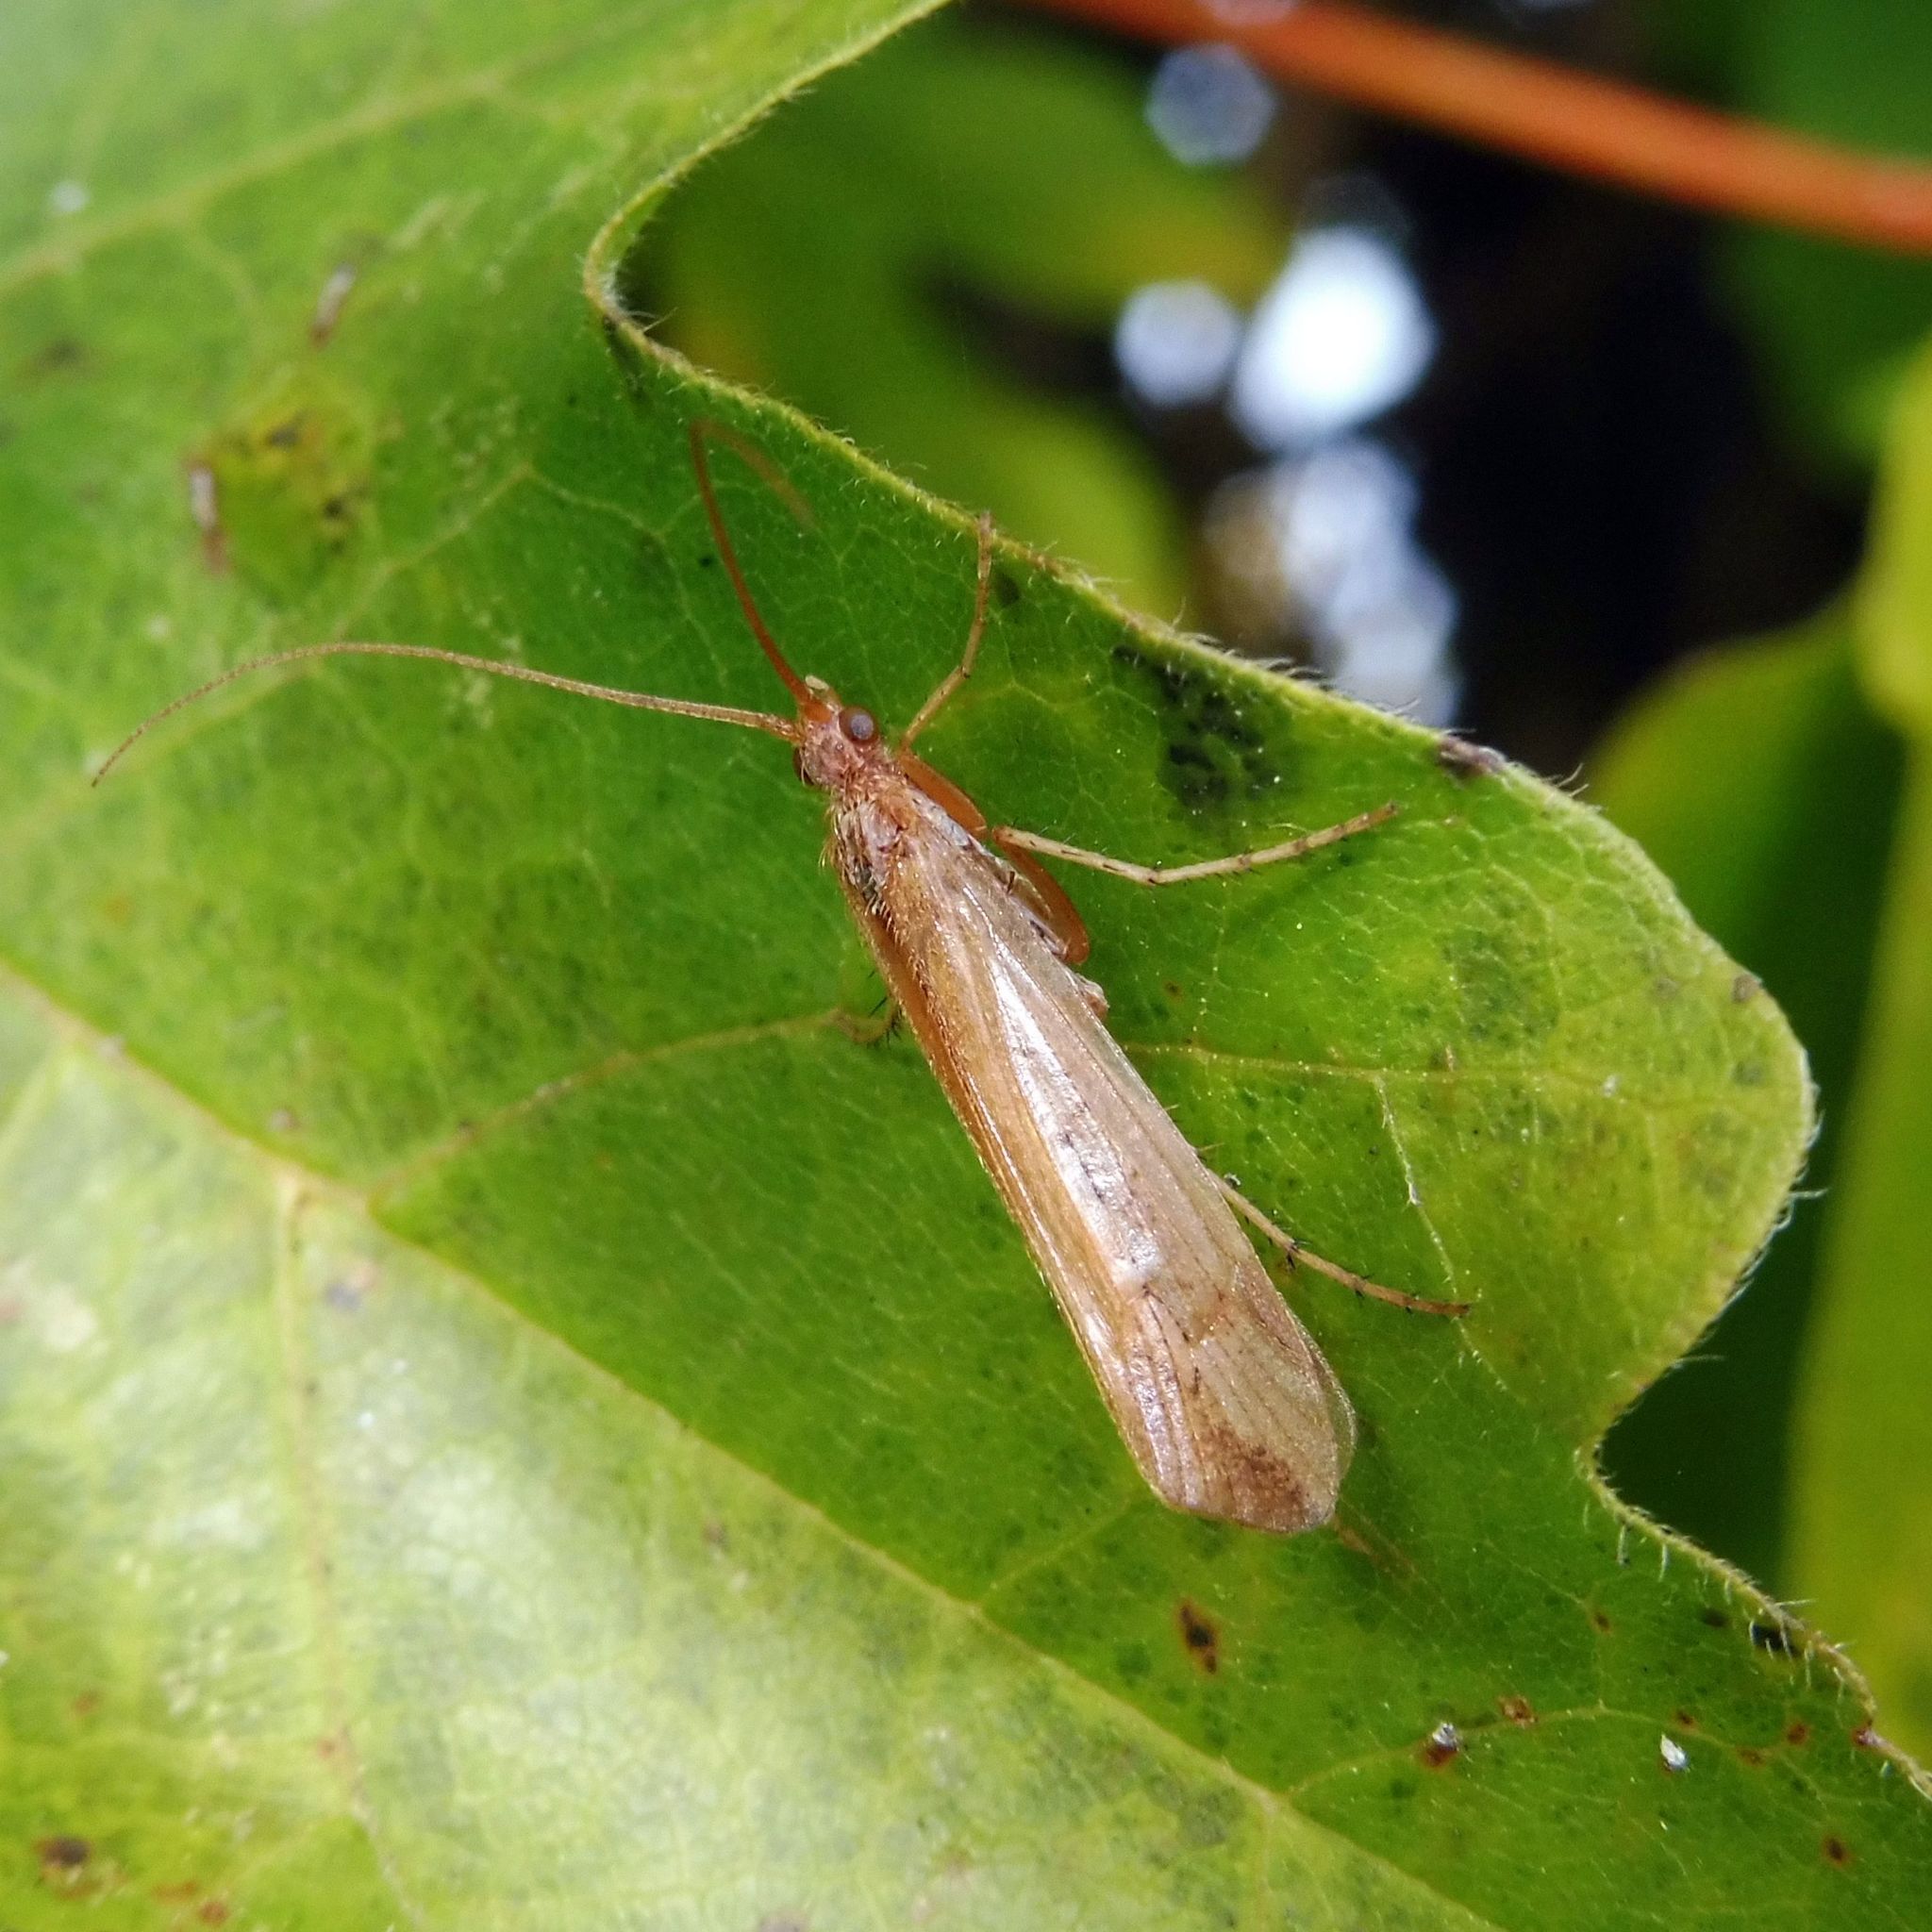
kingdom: Animalia
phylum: Arthropoda
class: Insecta
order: Trichoptera
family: Limnephilidae
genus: Limnephilus
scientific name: Limnephilus vittatus
